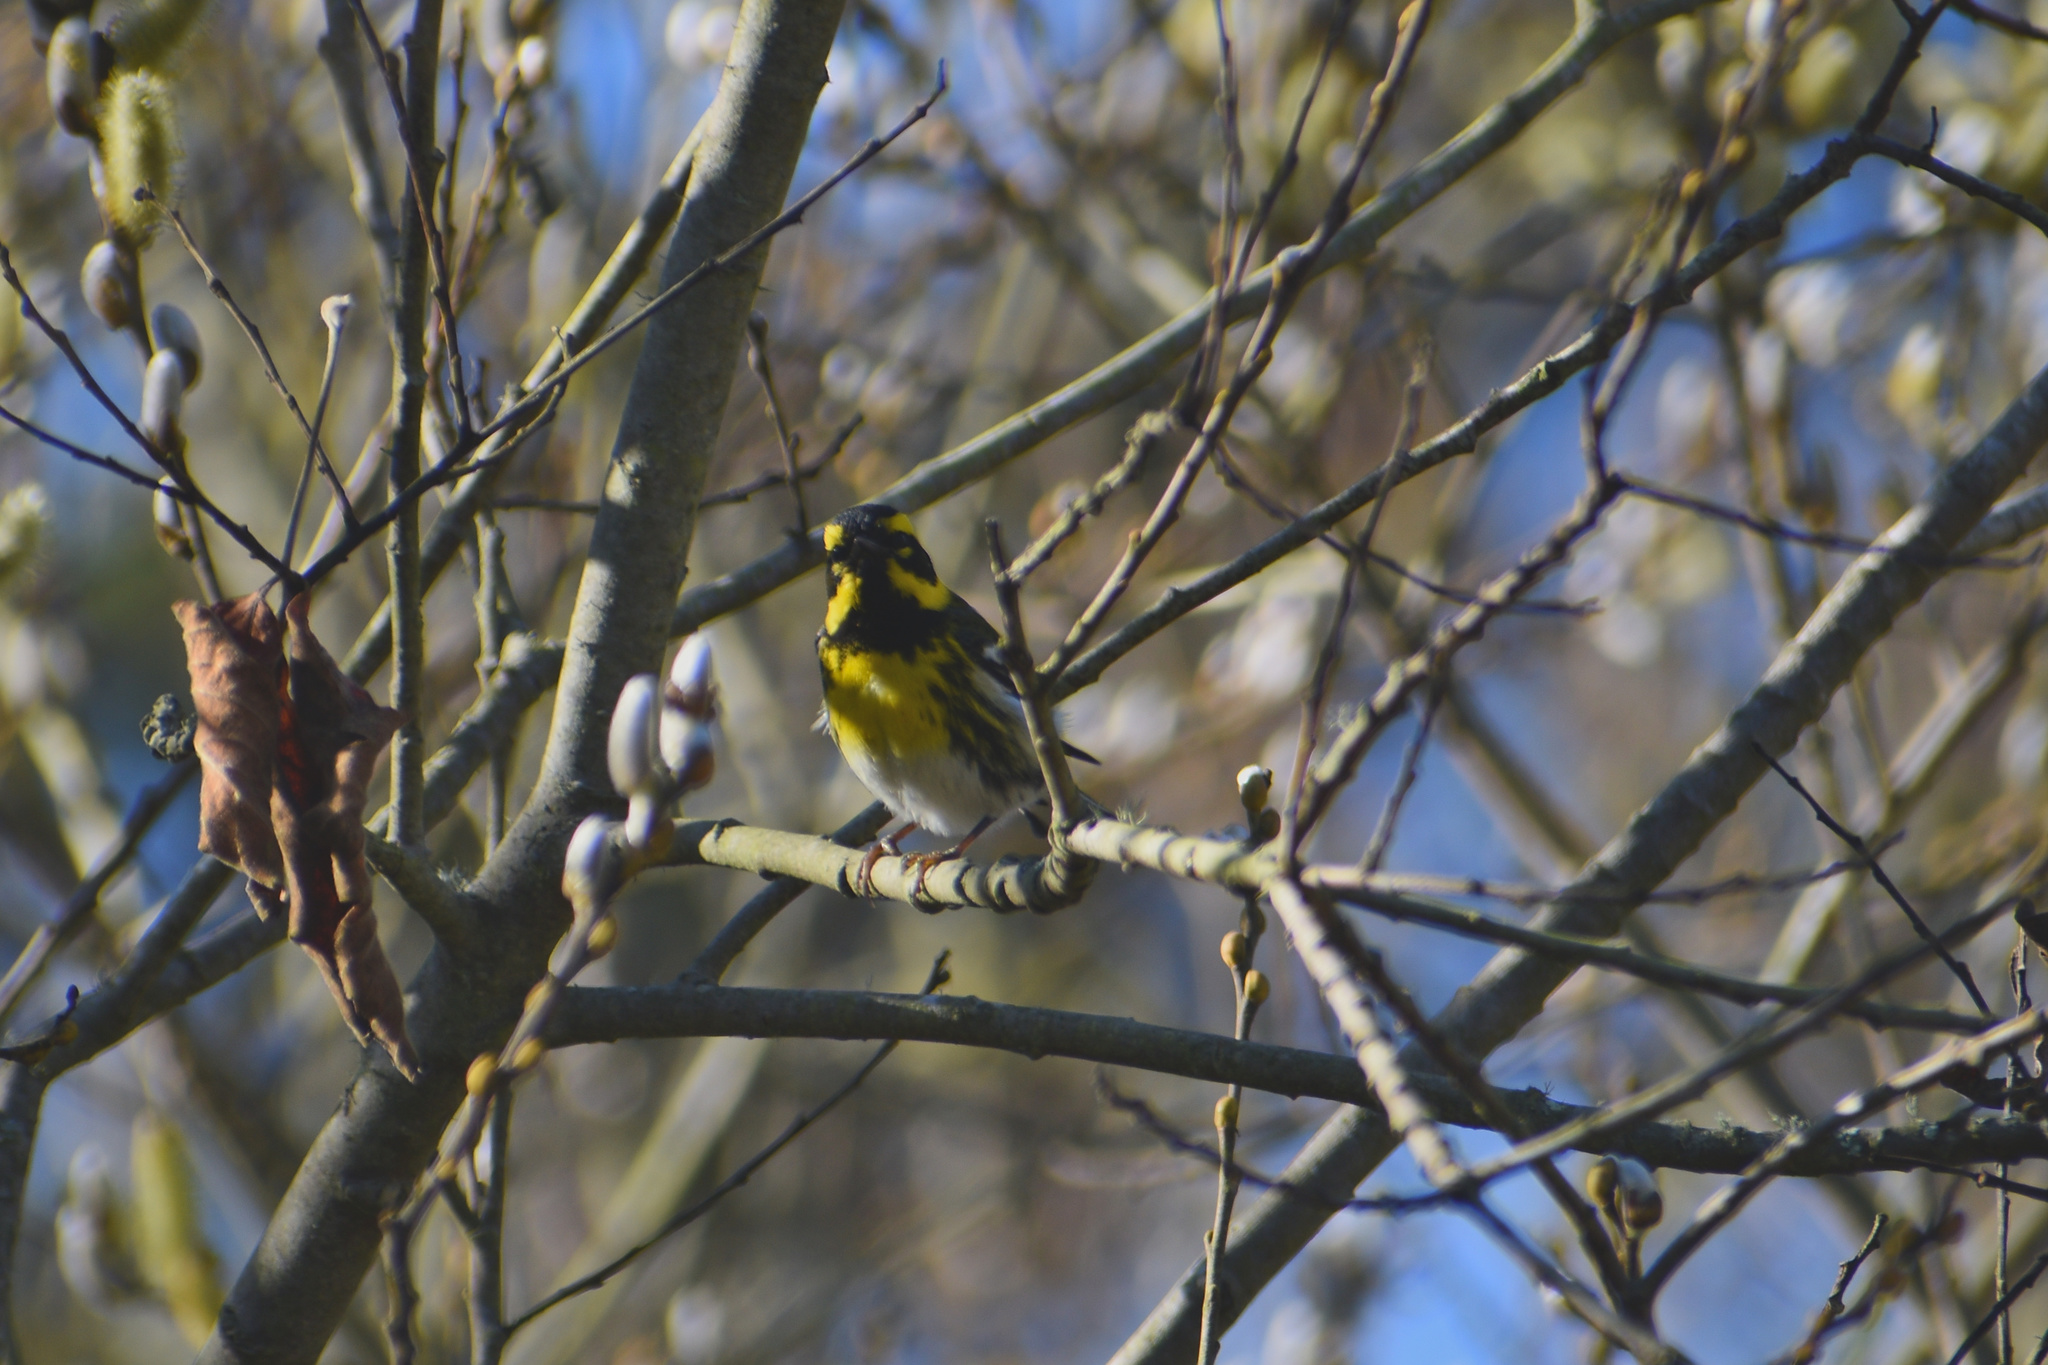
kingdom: Animalia
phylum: Chordata
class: Aves
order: Passeriformes
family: Parulidae
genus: Setophaga
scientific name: Setophaga townsendi
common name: Townsend's warbler
